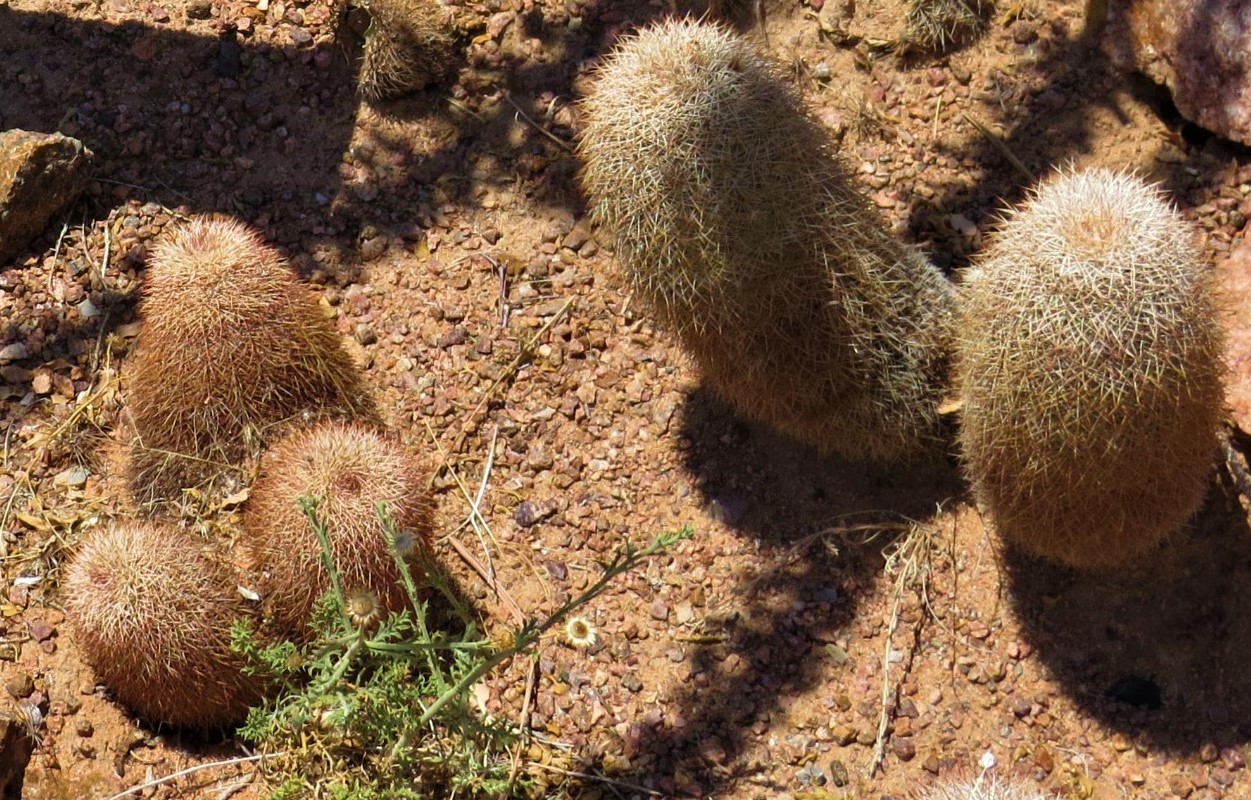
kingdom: Plantae
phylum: Tracheophyta
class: Magnoliopsida
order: Caryophyllales
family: Cactaceae
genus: Echinocereus
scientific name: Echinocereus dasyacanthus
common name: Spiny hedgehog cactus
